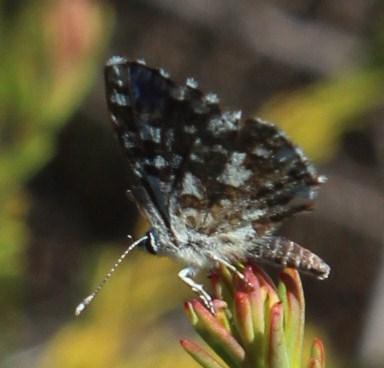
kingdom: Animalia
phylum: Arthropoda
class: Insecta
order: Lepidoptera
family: Lycaenidae
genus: Tarucus
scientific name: Tarucus thespis
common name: Vivid dotted blue
